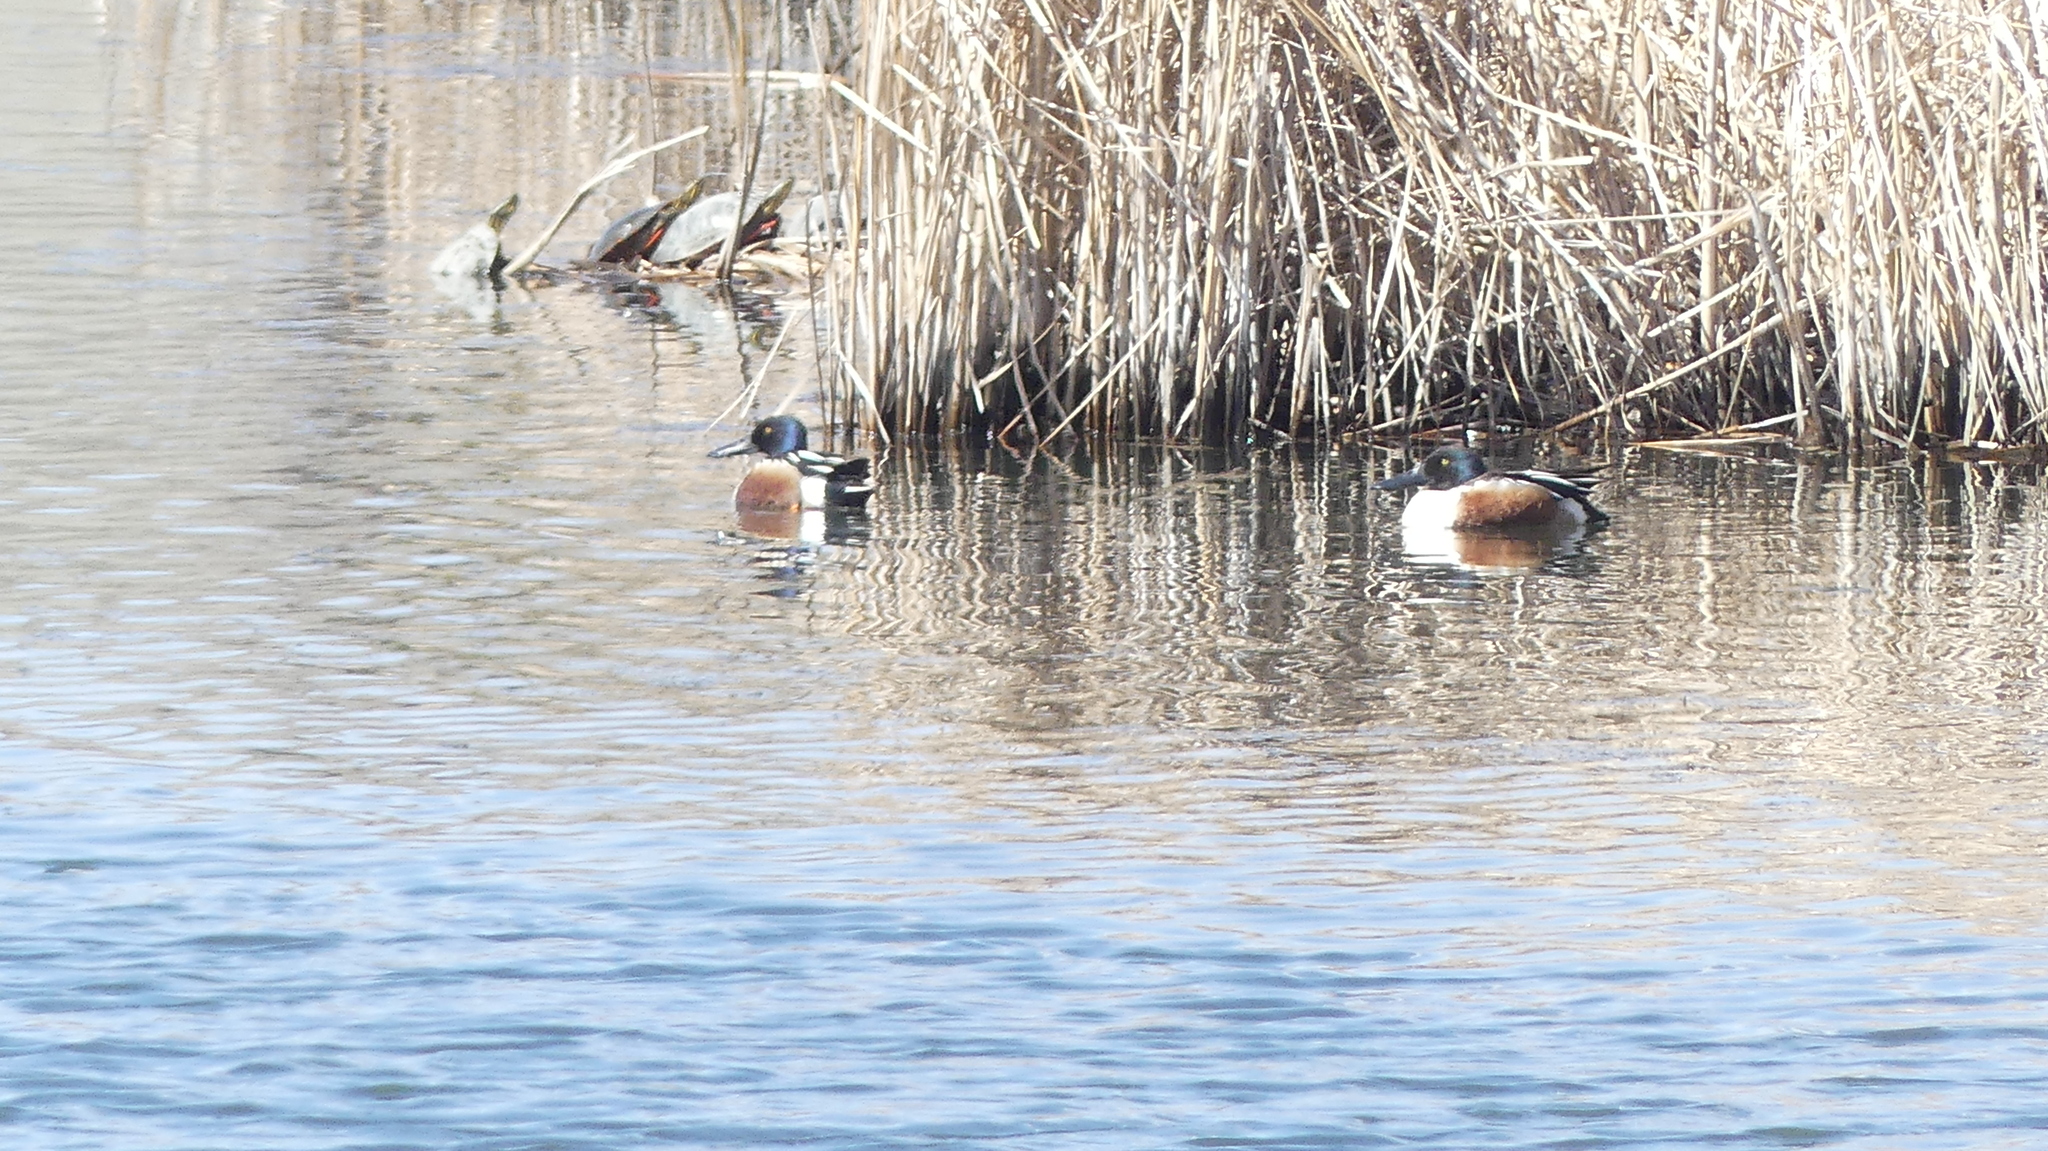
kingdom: Animalia
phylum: Chordata
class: Aves
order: Anseriformes
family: Anatidae
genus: Spatula
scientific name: Spatula clypeata
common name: Northern shoveler
